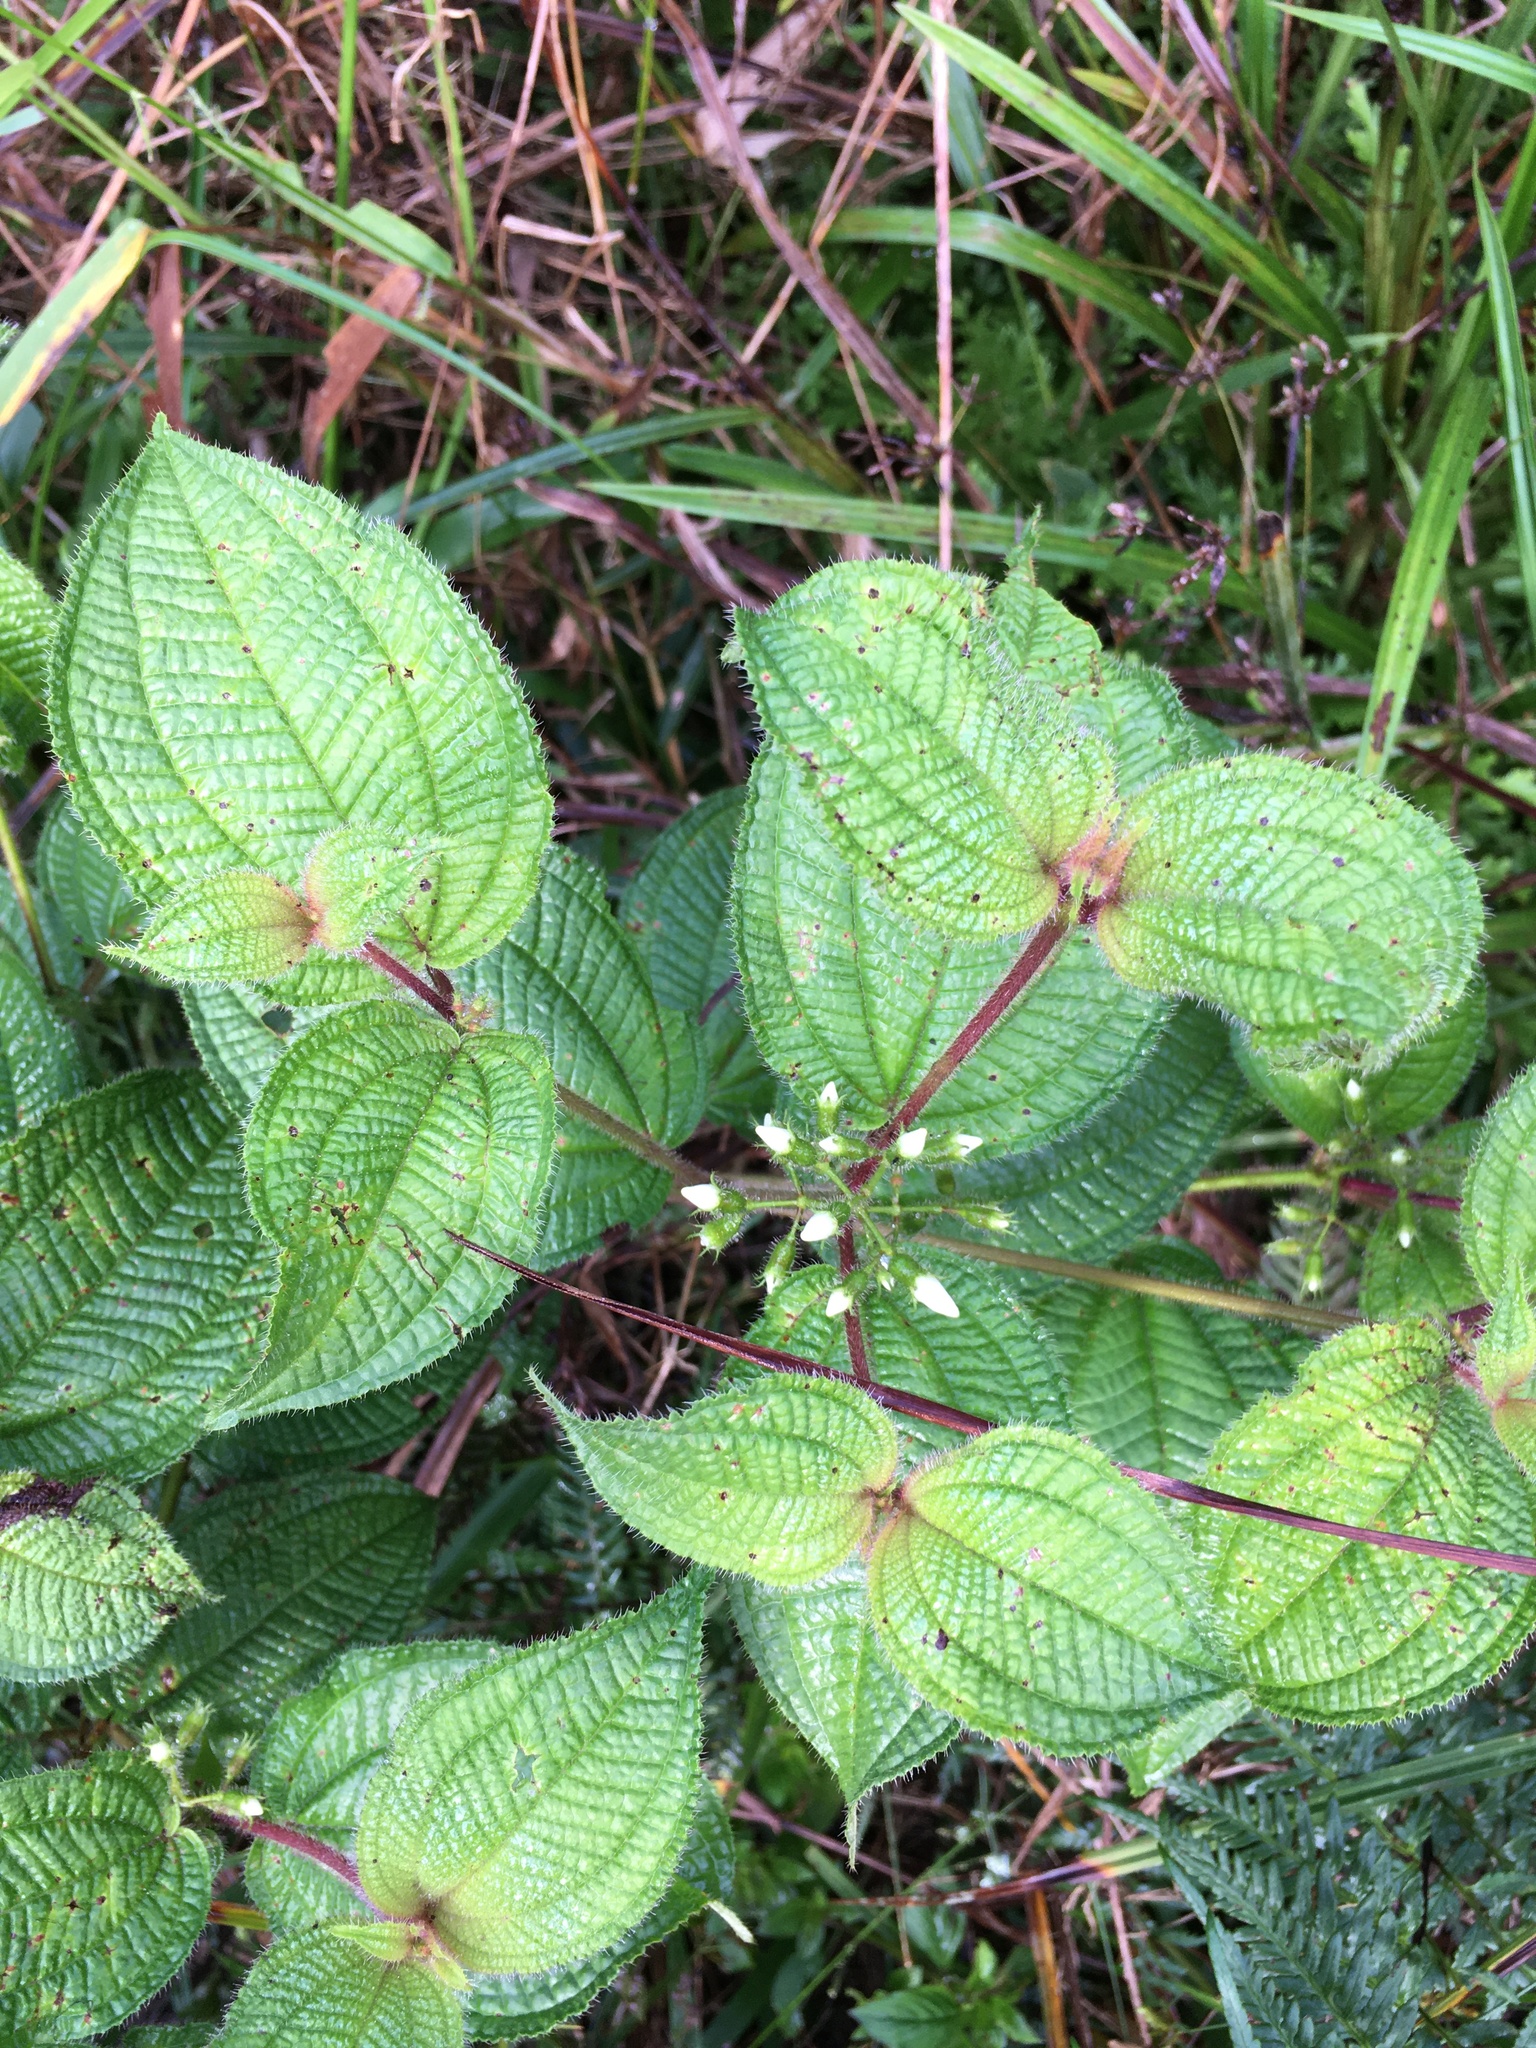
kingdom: Plantae
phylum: Tracheophyta
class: Magnoliopsida
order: Myrtales
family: Melastomataceae
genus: Miconia
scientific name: Miconia crenata
